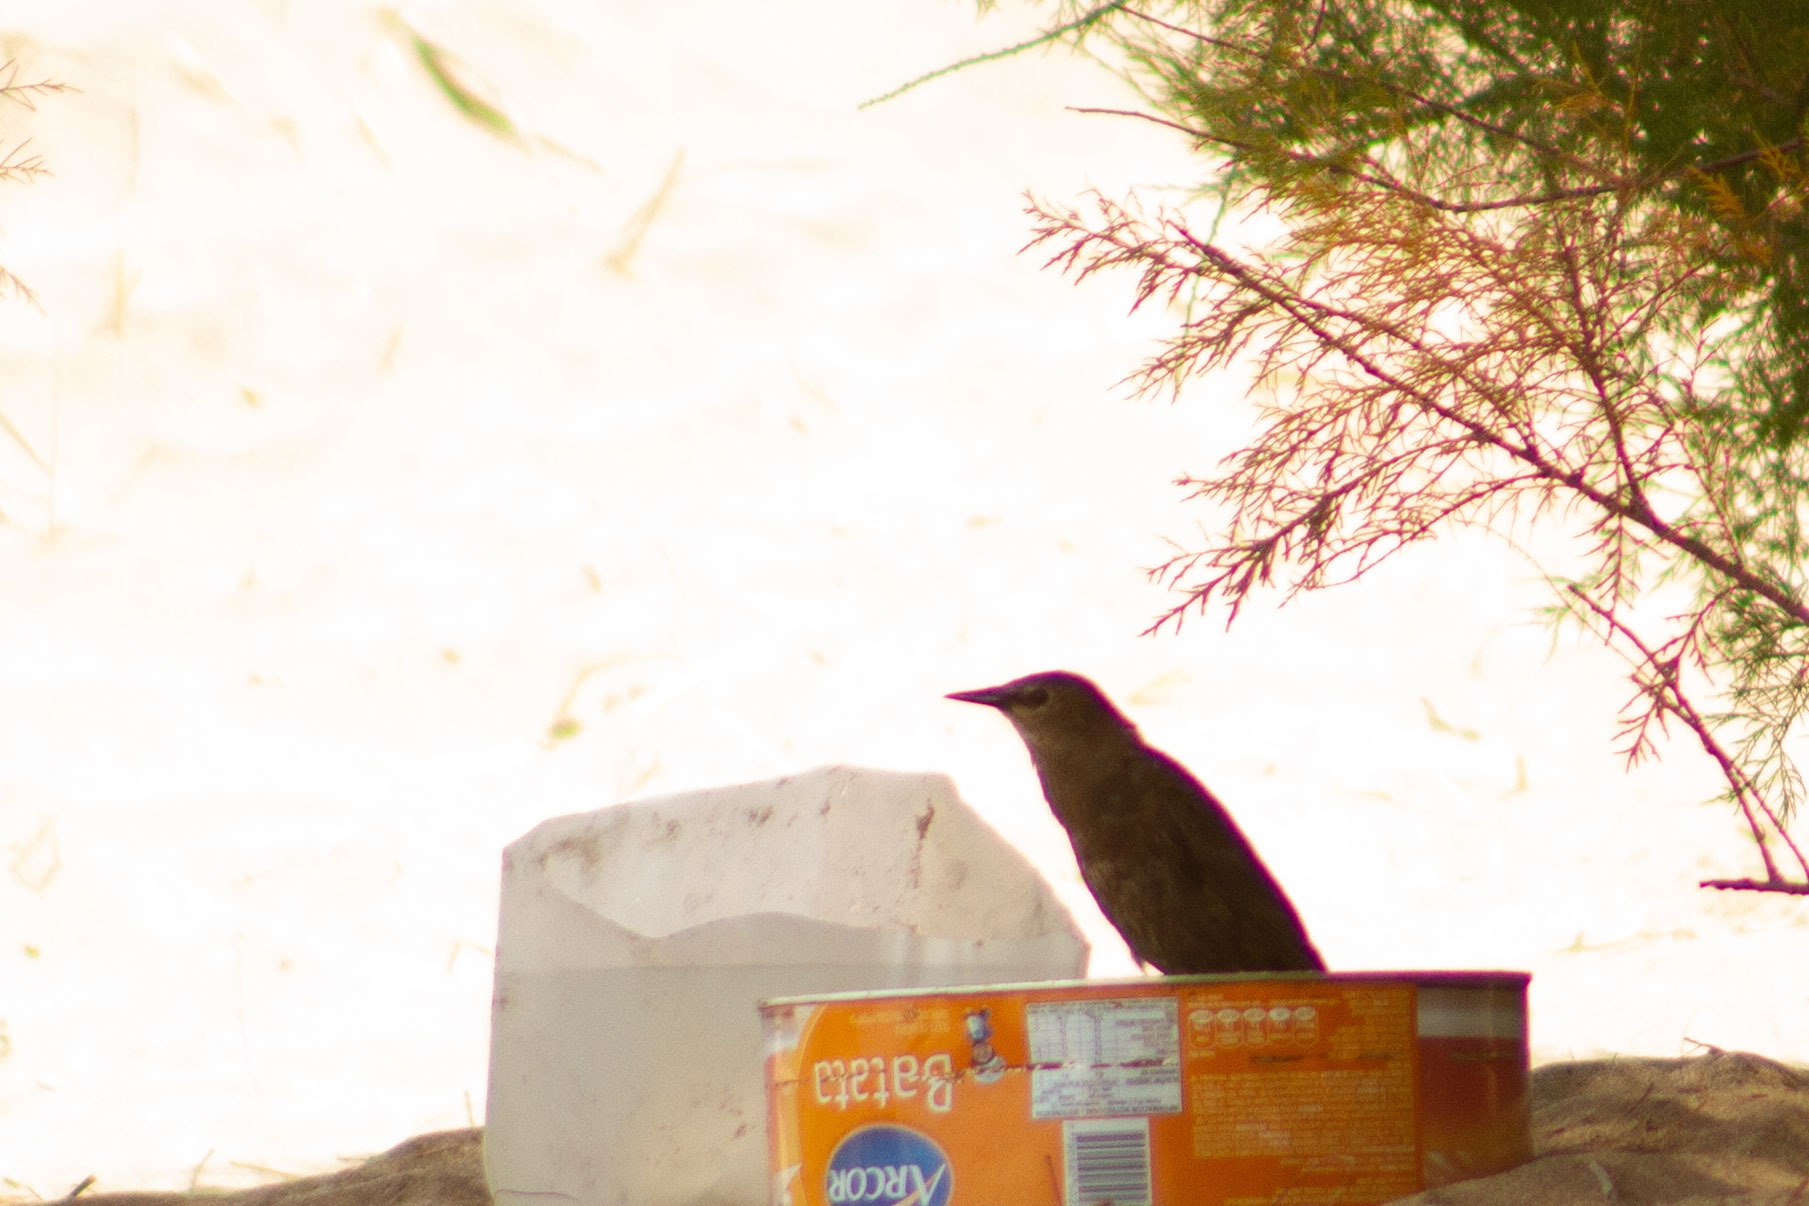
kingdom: Animalia
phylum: Chordata
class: Aves
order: Passeriformes
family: Sturnidae
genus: Sturnus
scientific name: Sturnus vulgaris
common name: Common starling
